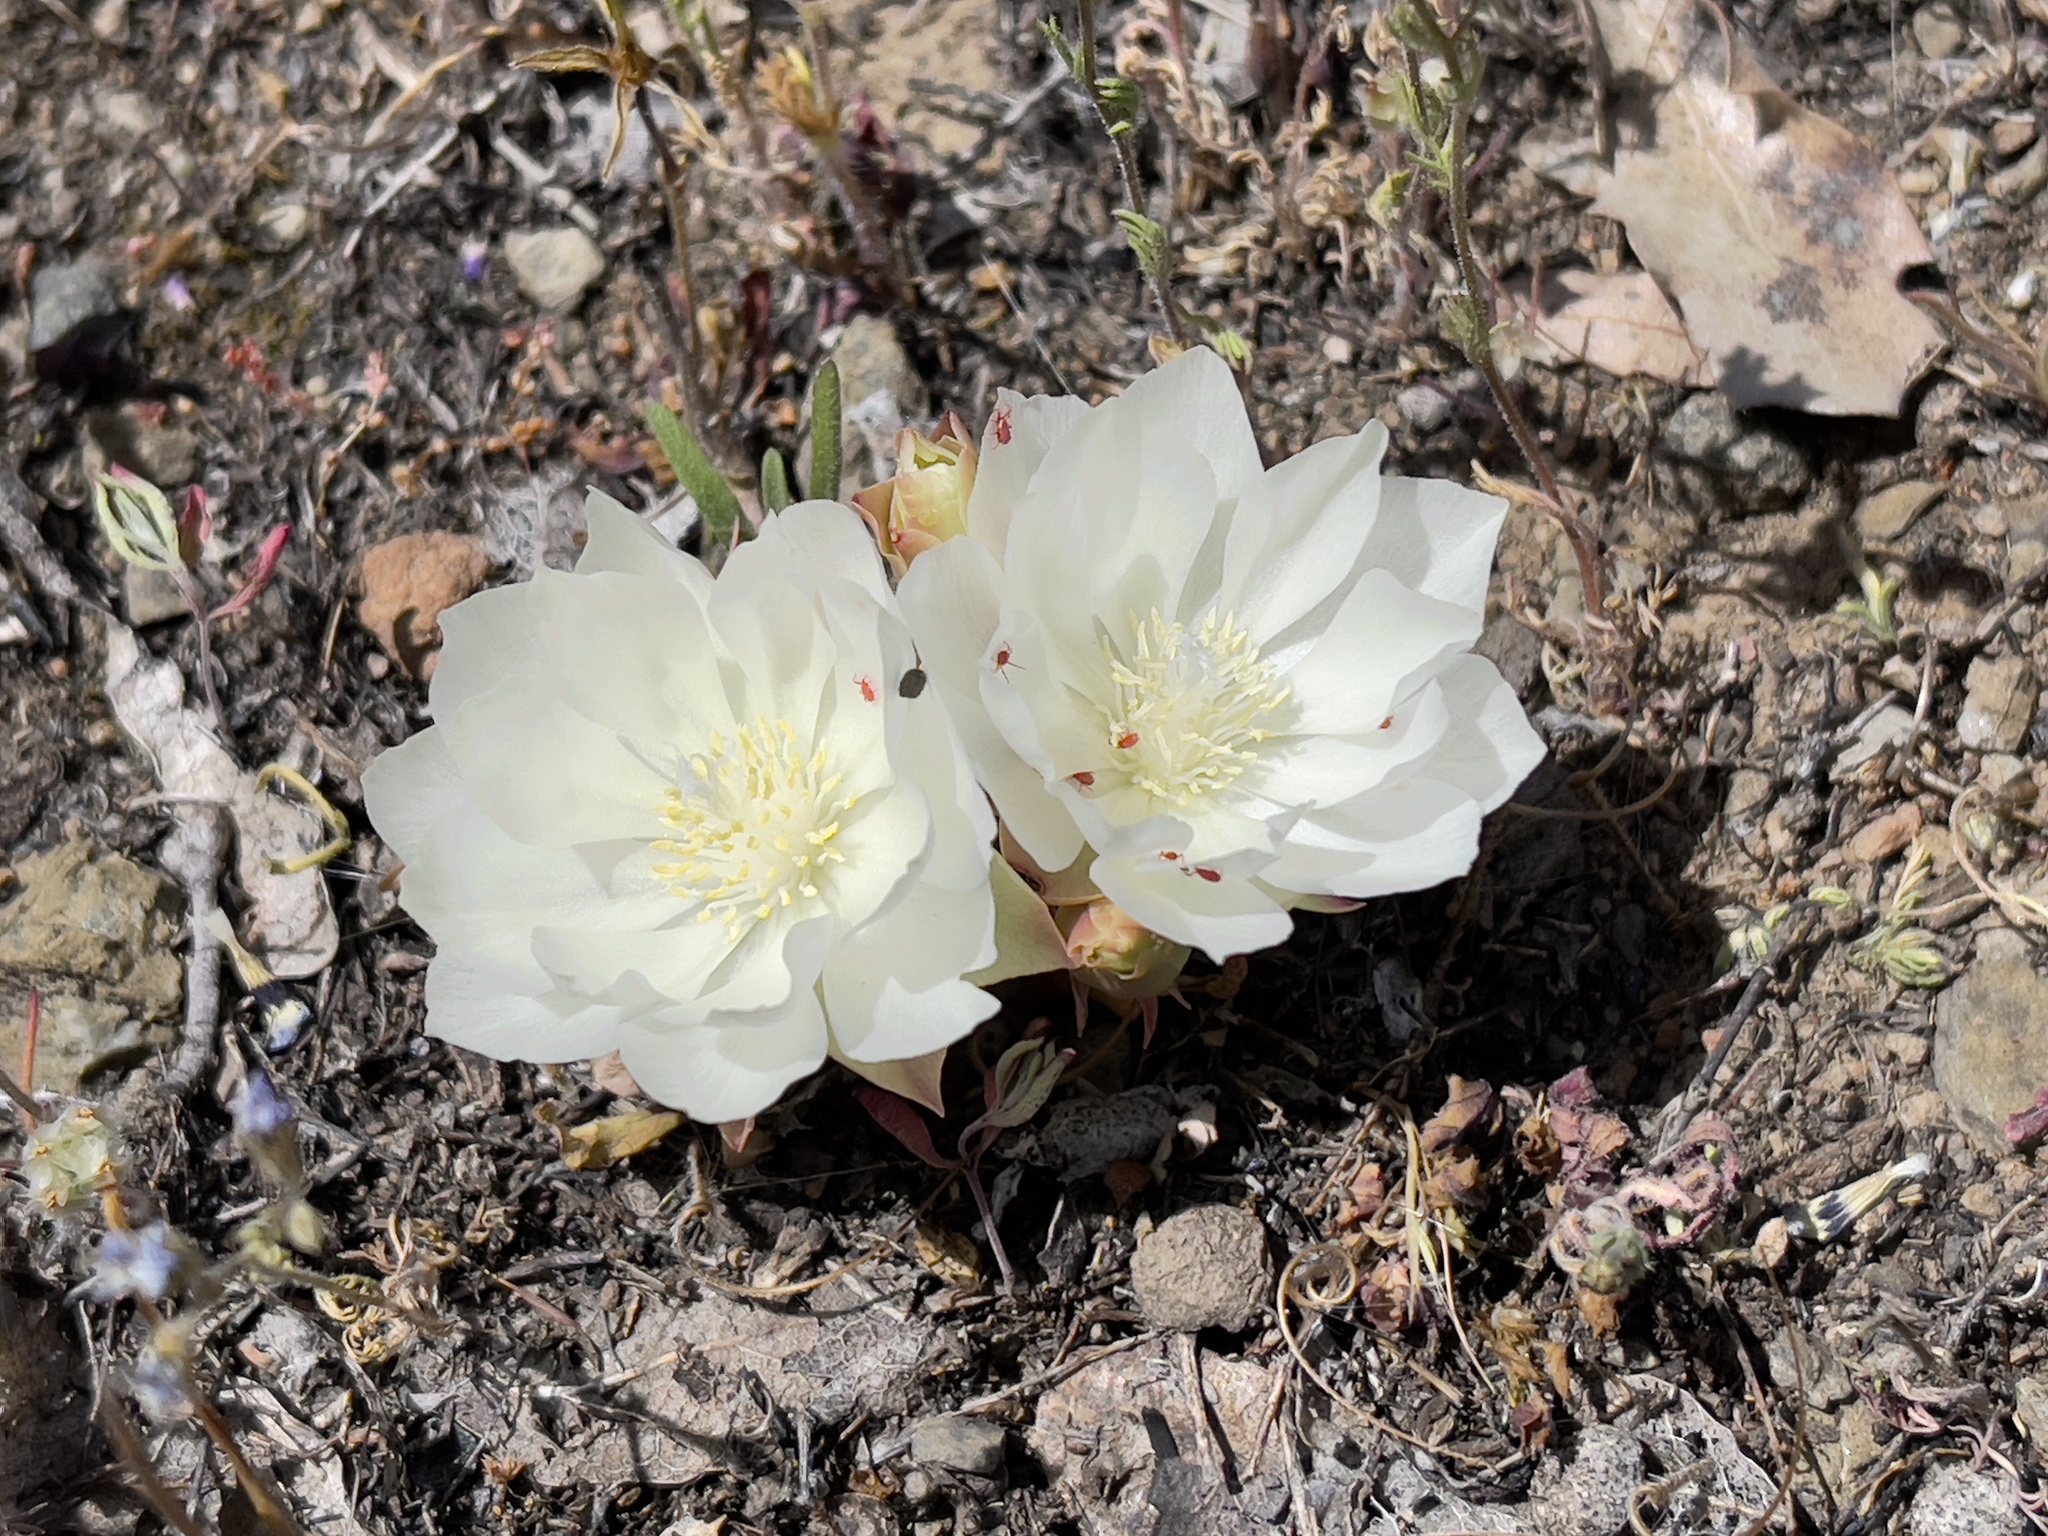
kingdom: Plantae
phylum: Tracheophyta
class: Magnoliopsida
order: Caryophyllales
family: Montiaceae
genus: Lewisia
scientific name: Lewisia rediviva
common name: Bitter-root
